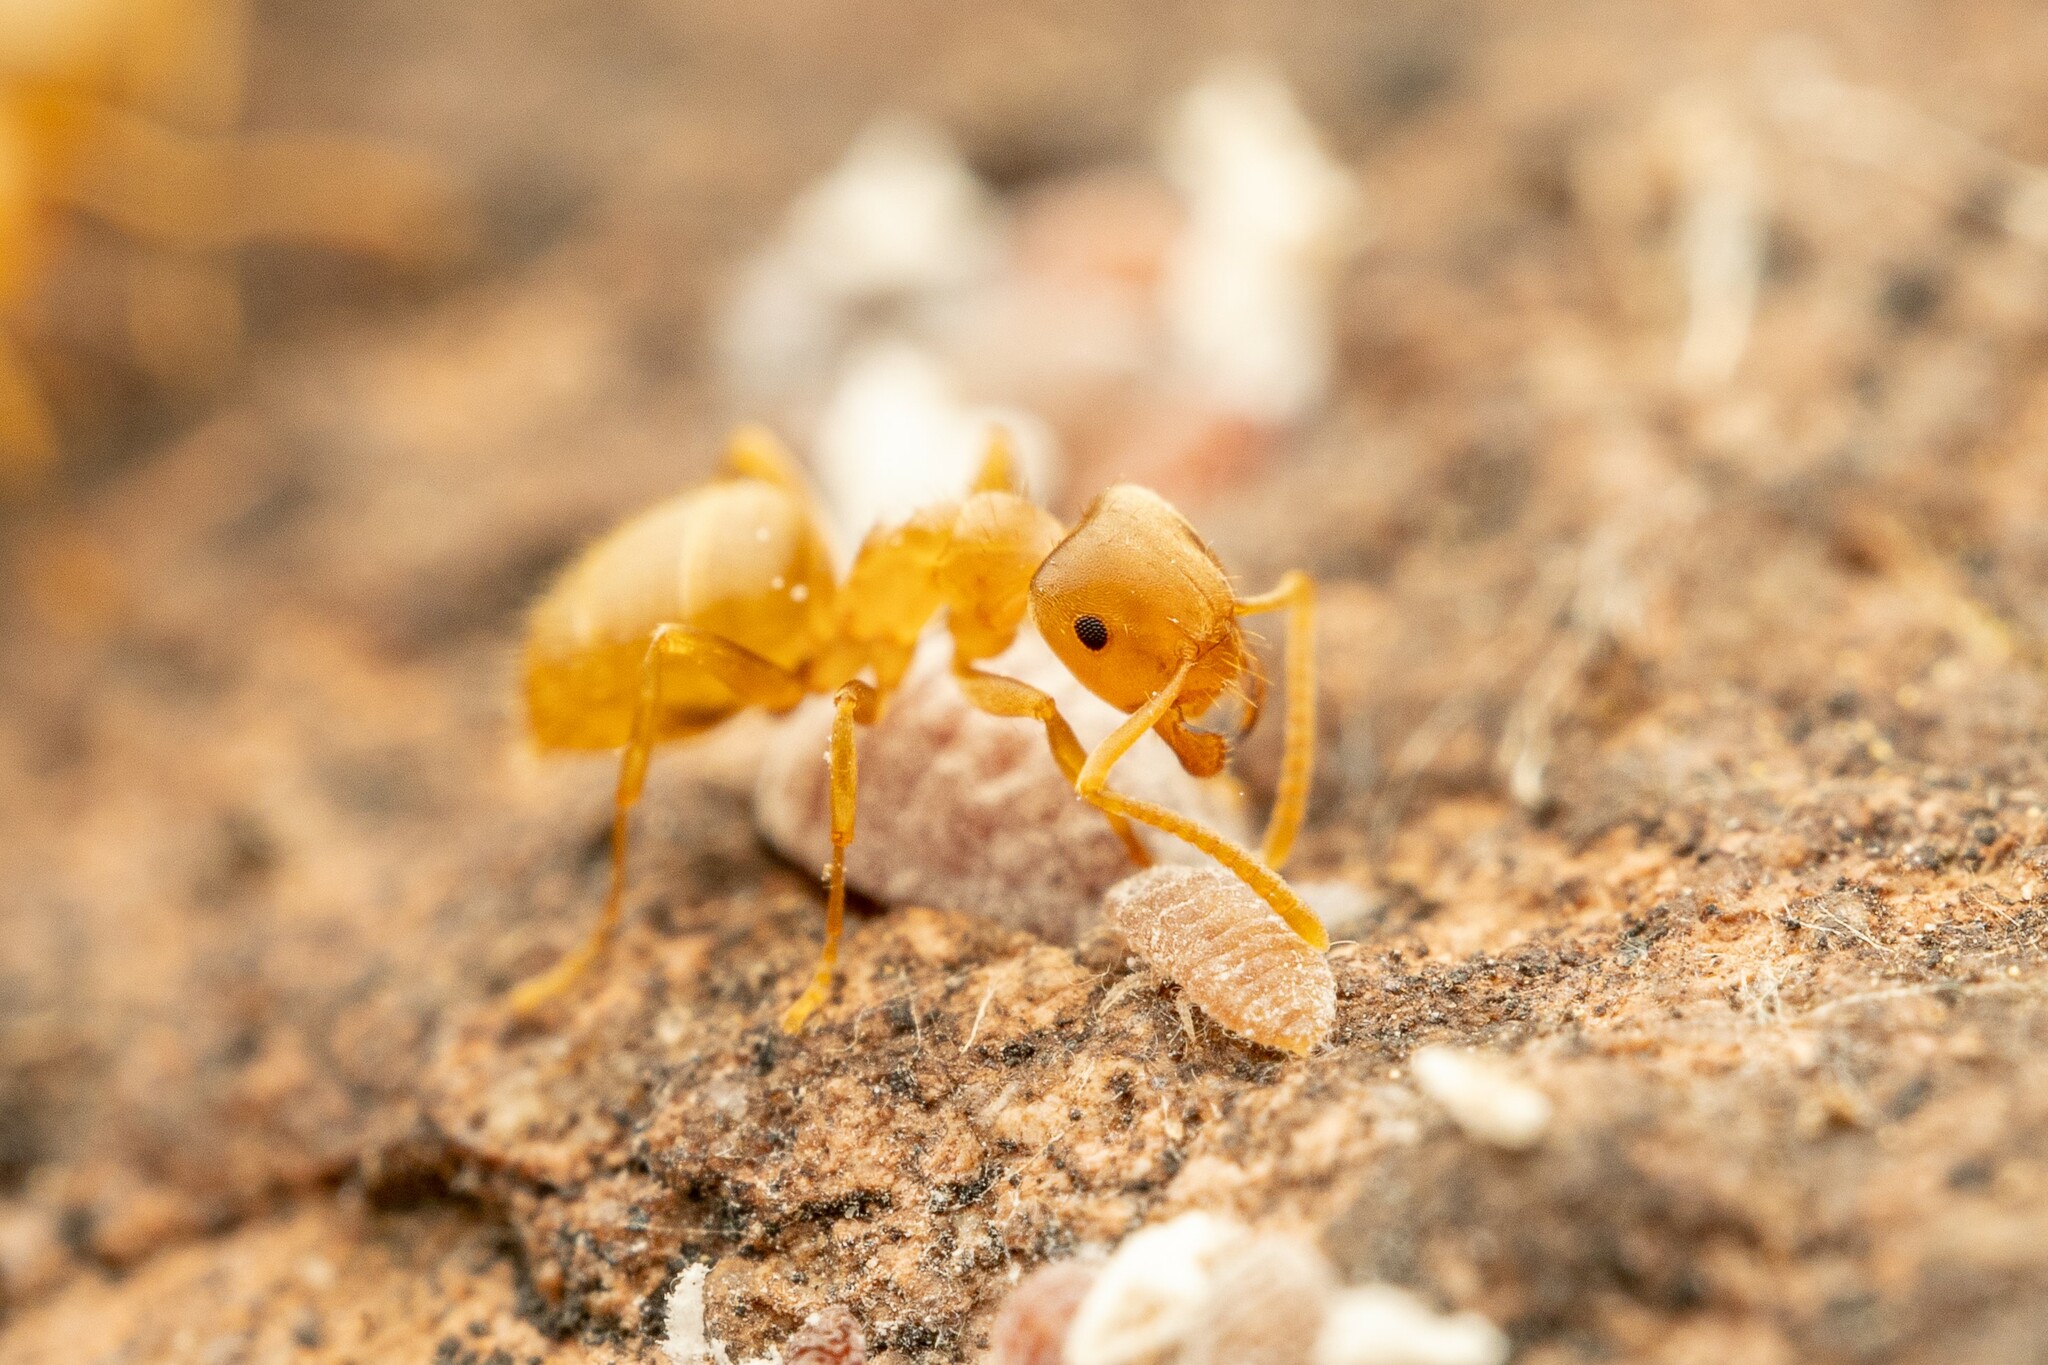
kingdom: Animalia
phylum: Arthropoda
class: Insecta
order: Hymenoptera
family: Formicidae
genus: Lasius
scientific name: Lasius sitiens
